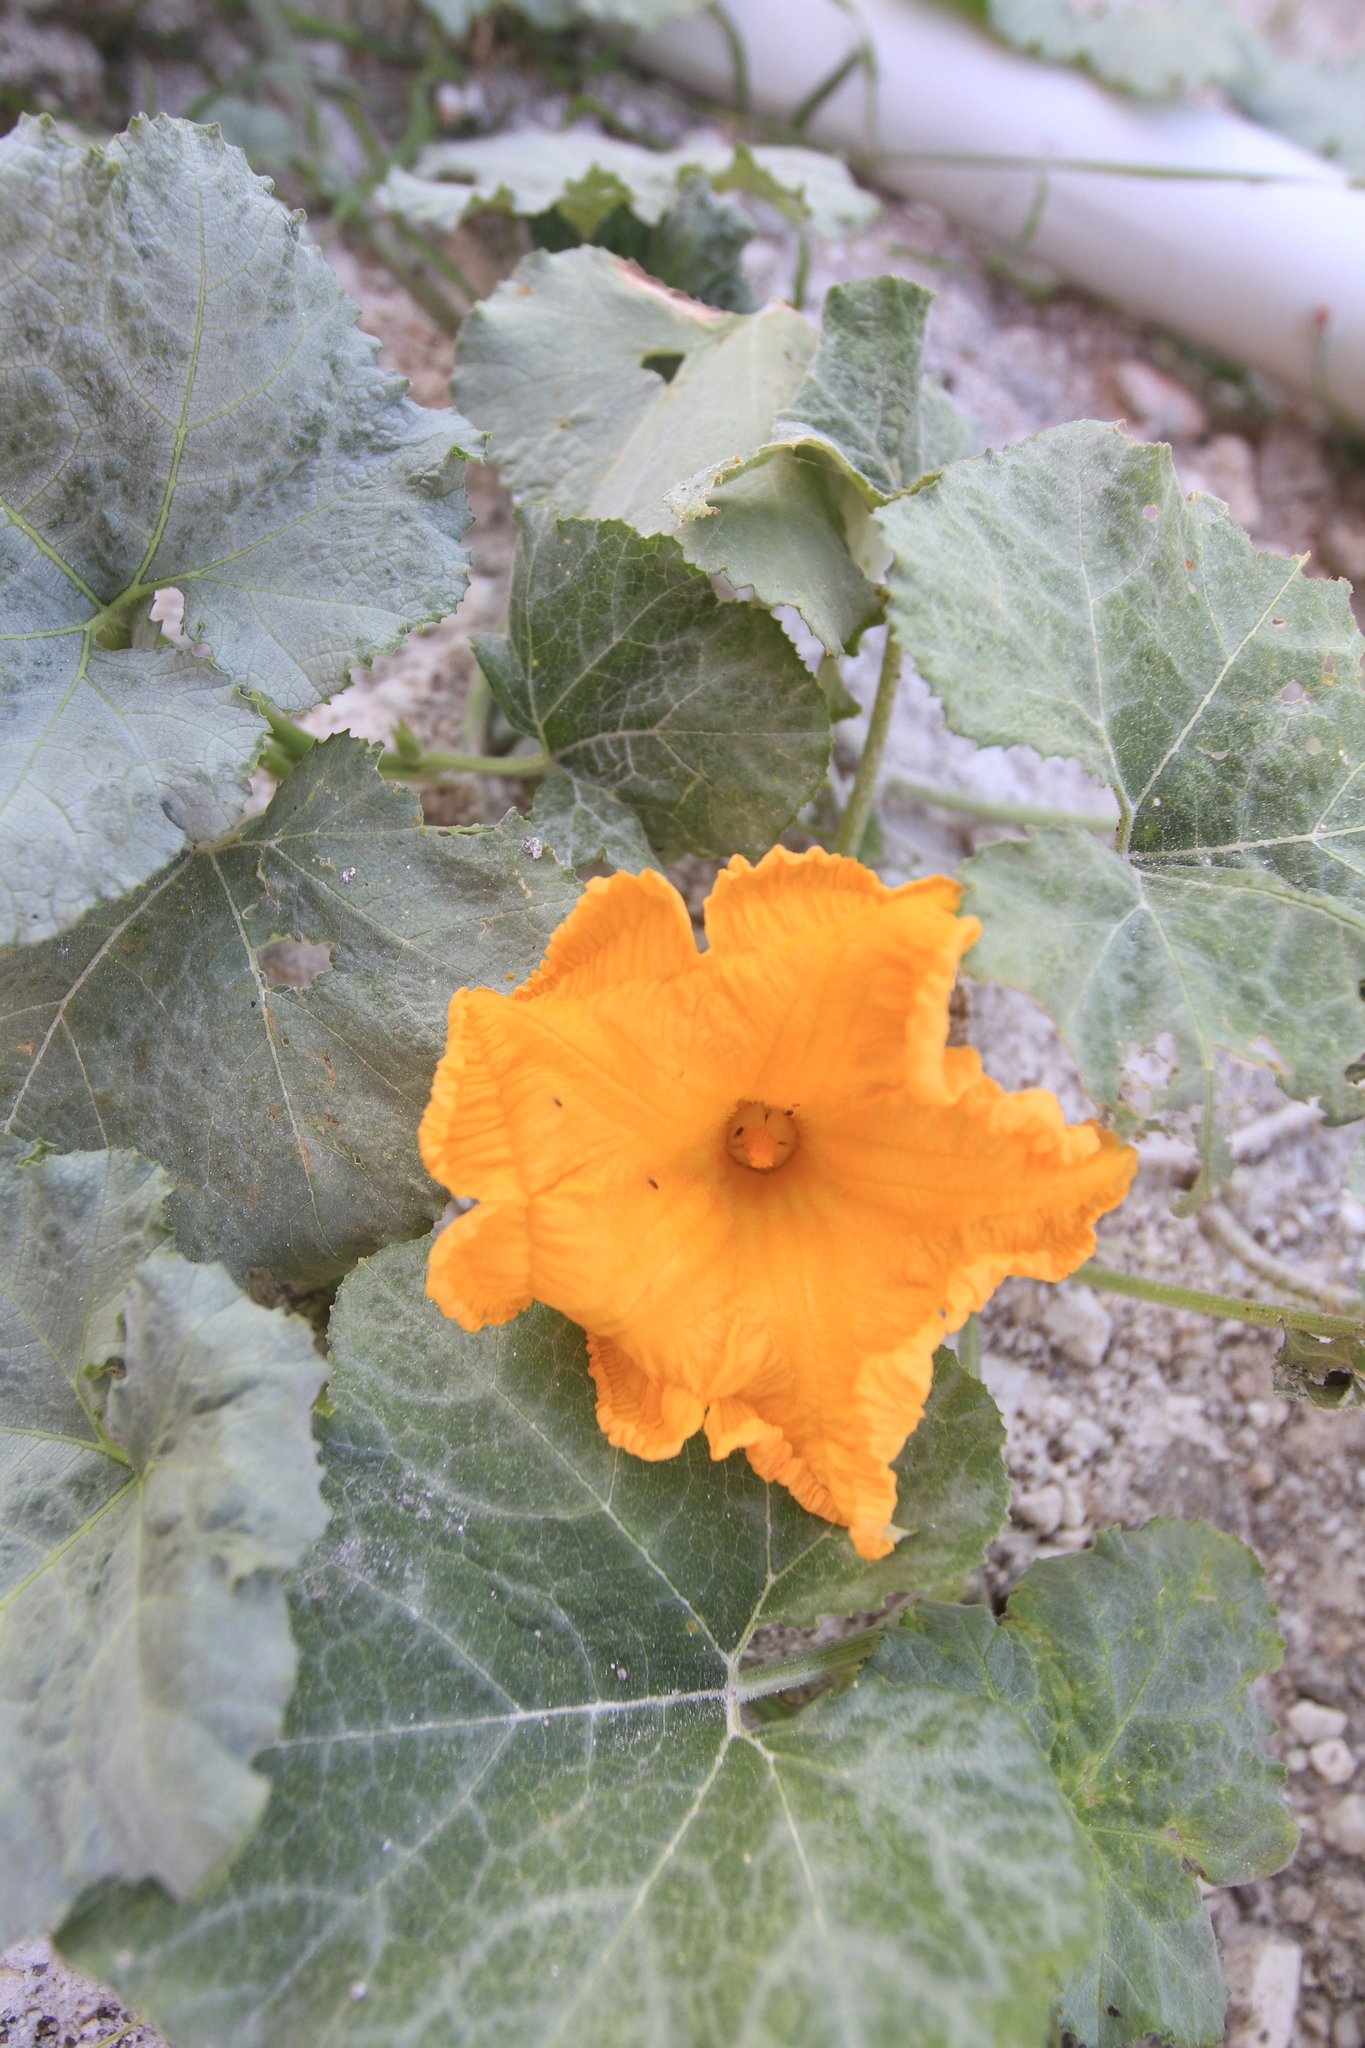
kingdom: Plantae
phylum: Tracheophyta
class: Magnoliopsida
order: Cucurbitales
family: Cucurbitaceae
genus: Cucurbita
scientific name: Cucurbita moschata
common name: Squash / pumpkin
